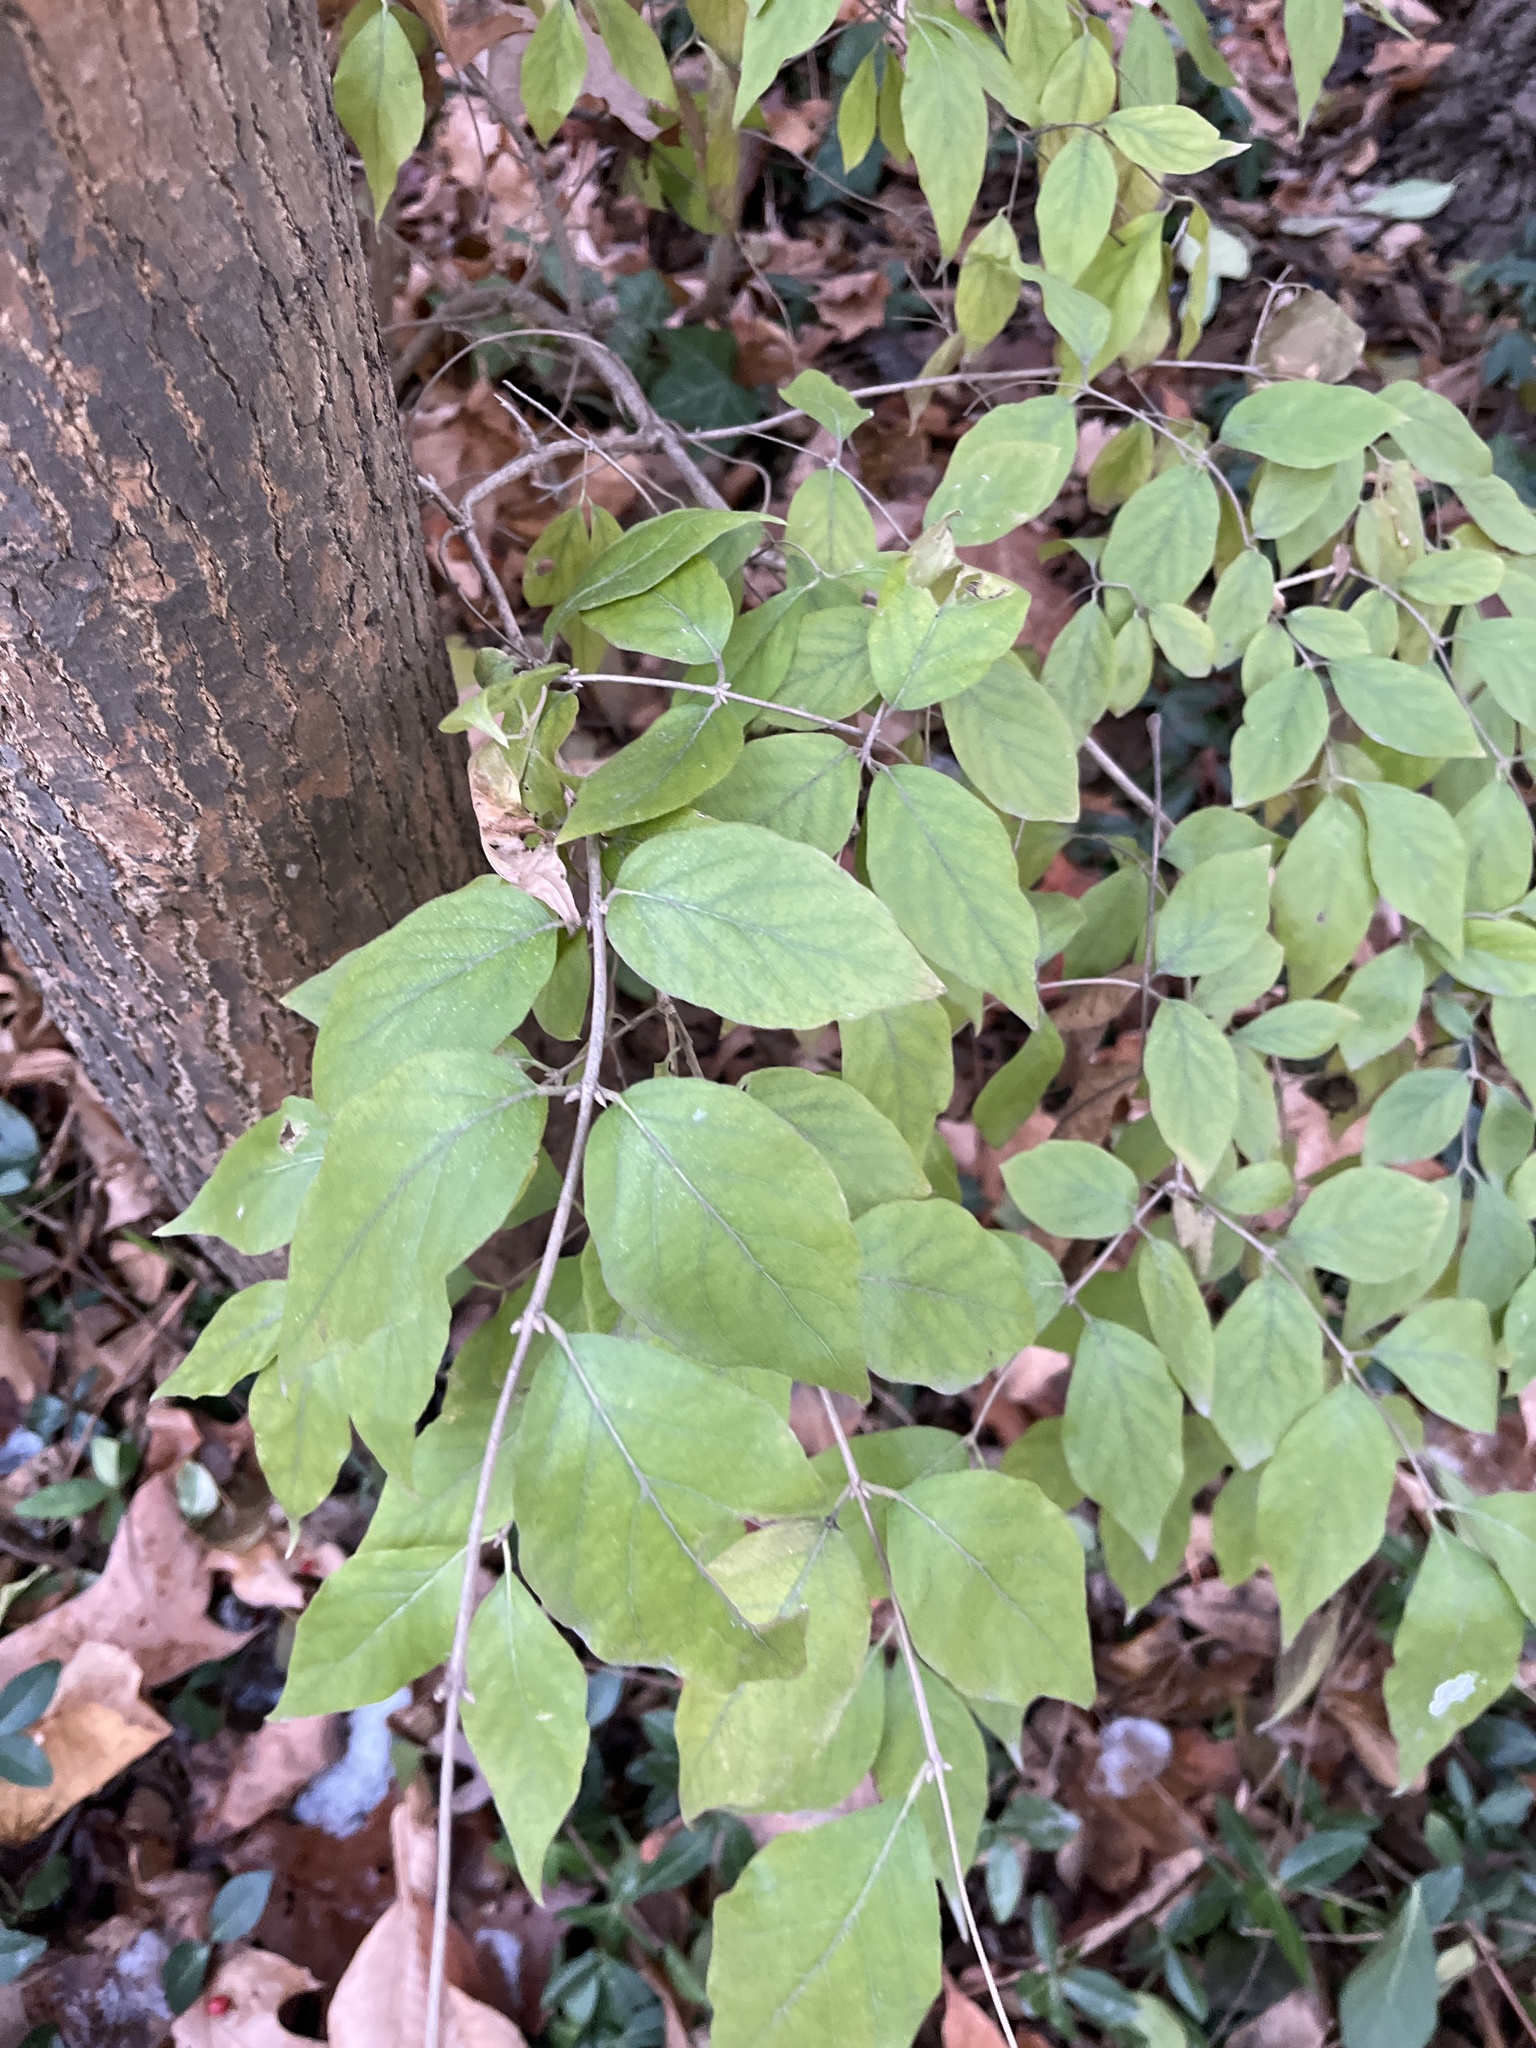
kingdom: Plantae
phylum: Tracheophyta
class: Magnoliopsida
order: Dipsacales
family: Caprifoliaceae
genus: Lonicera
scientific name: Lonicera maackii
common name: Amur honeysuckle
